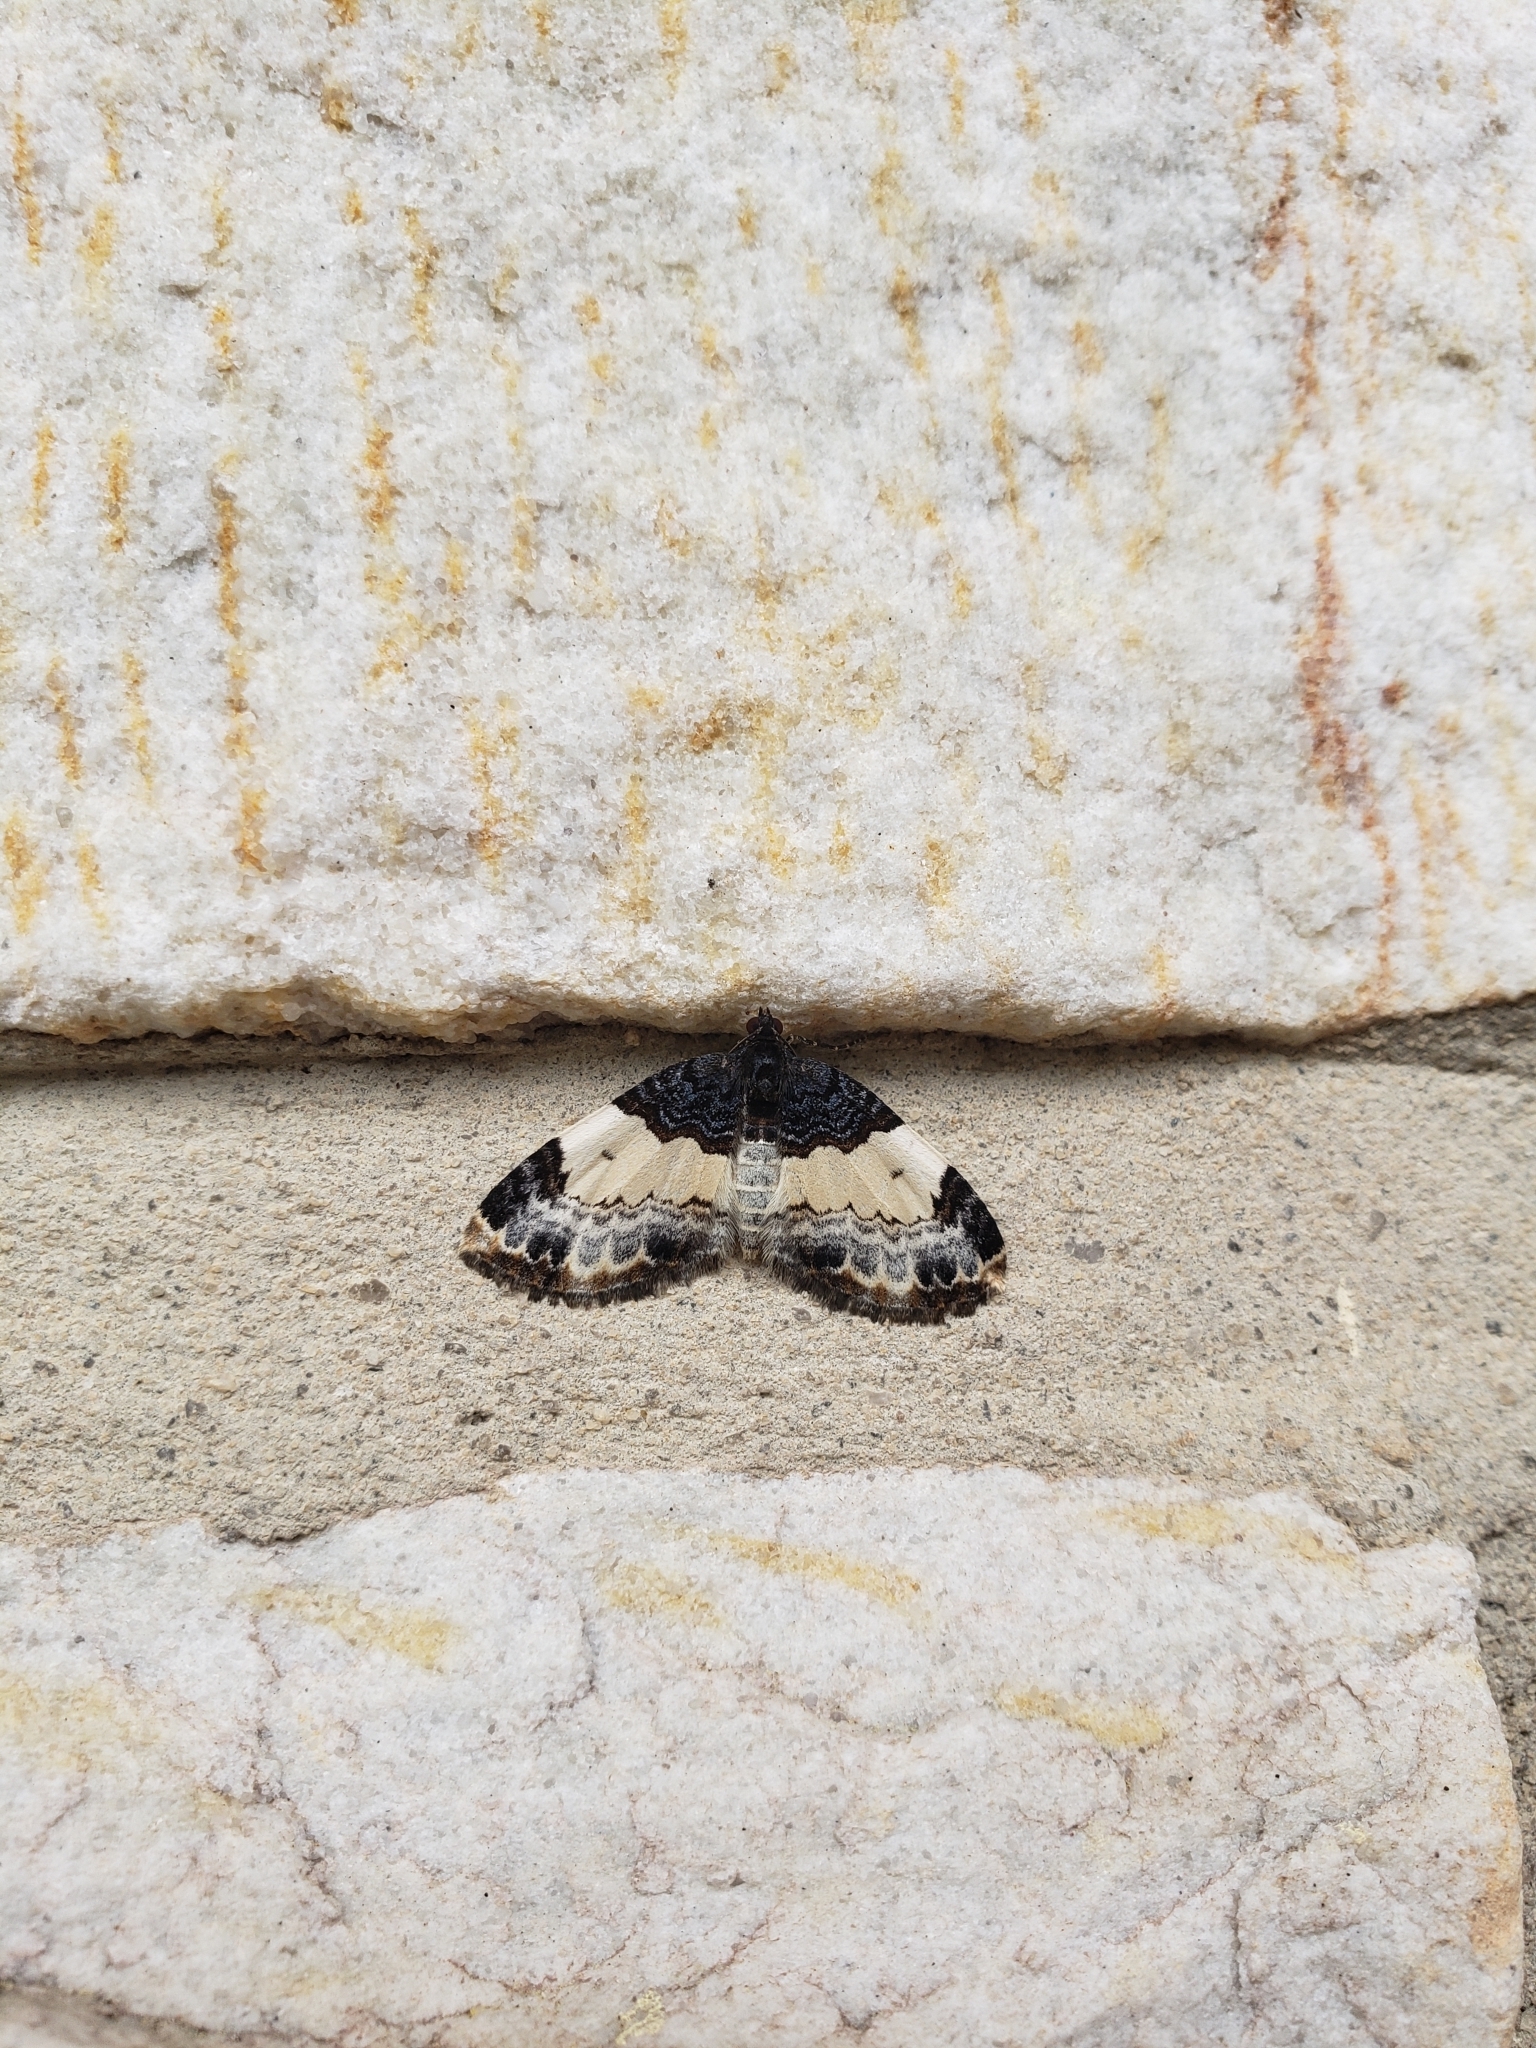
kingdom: Animalia
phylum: Arthropoda
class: Insecta
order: Lepidoptera
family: Geometridae
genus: Mesoleuca
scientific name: Mesoleuca ruficillata
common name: White-ribboned carpet moth
